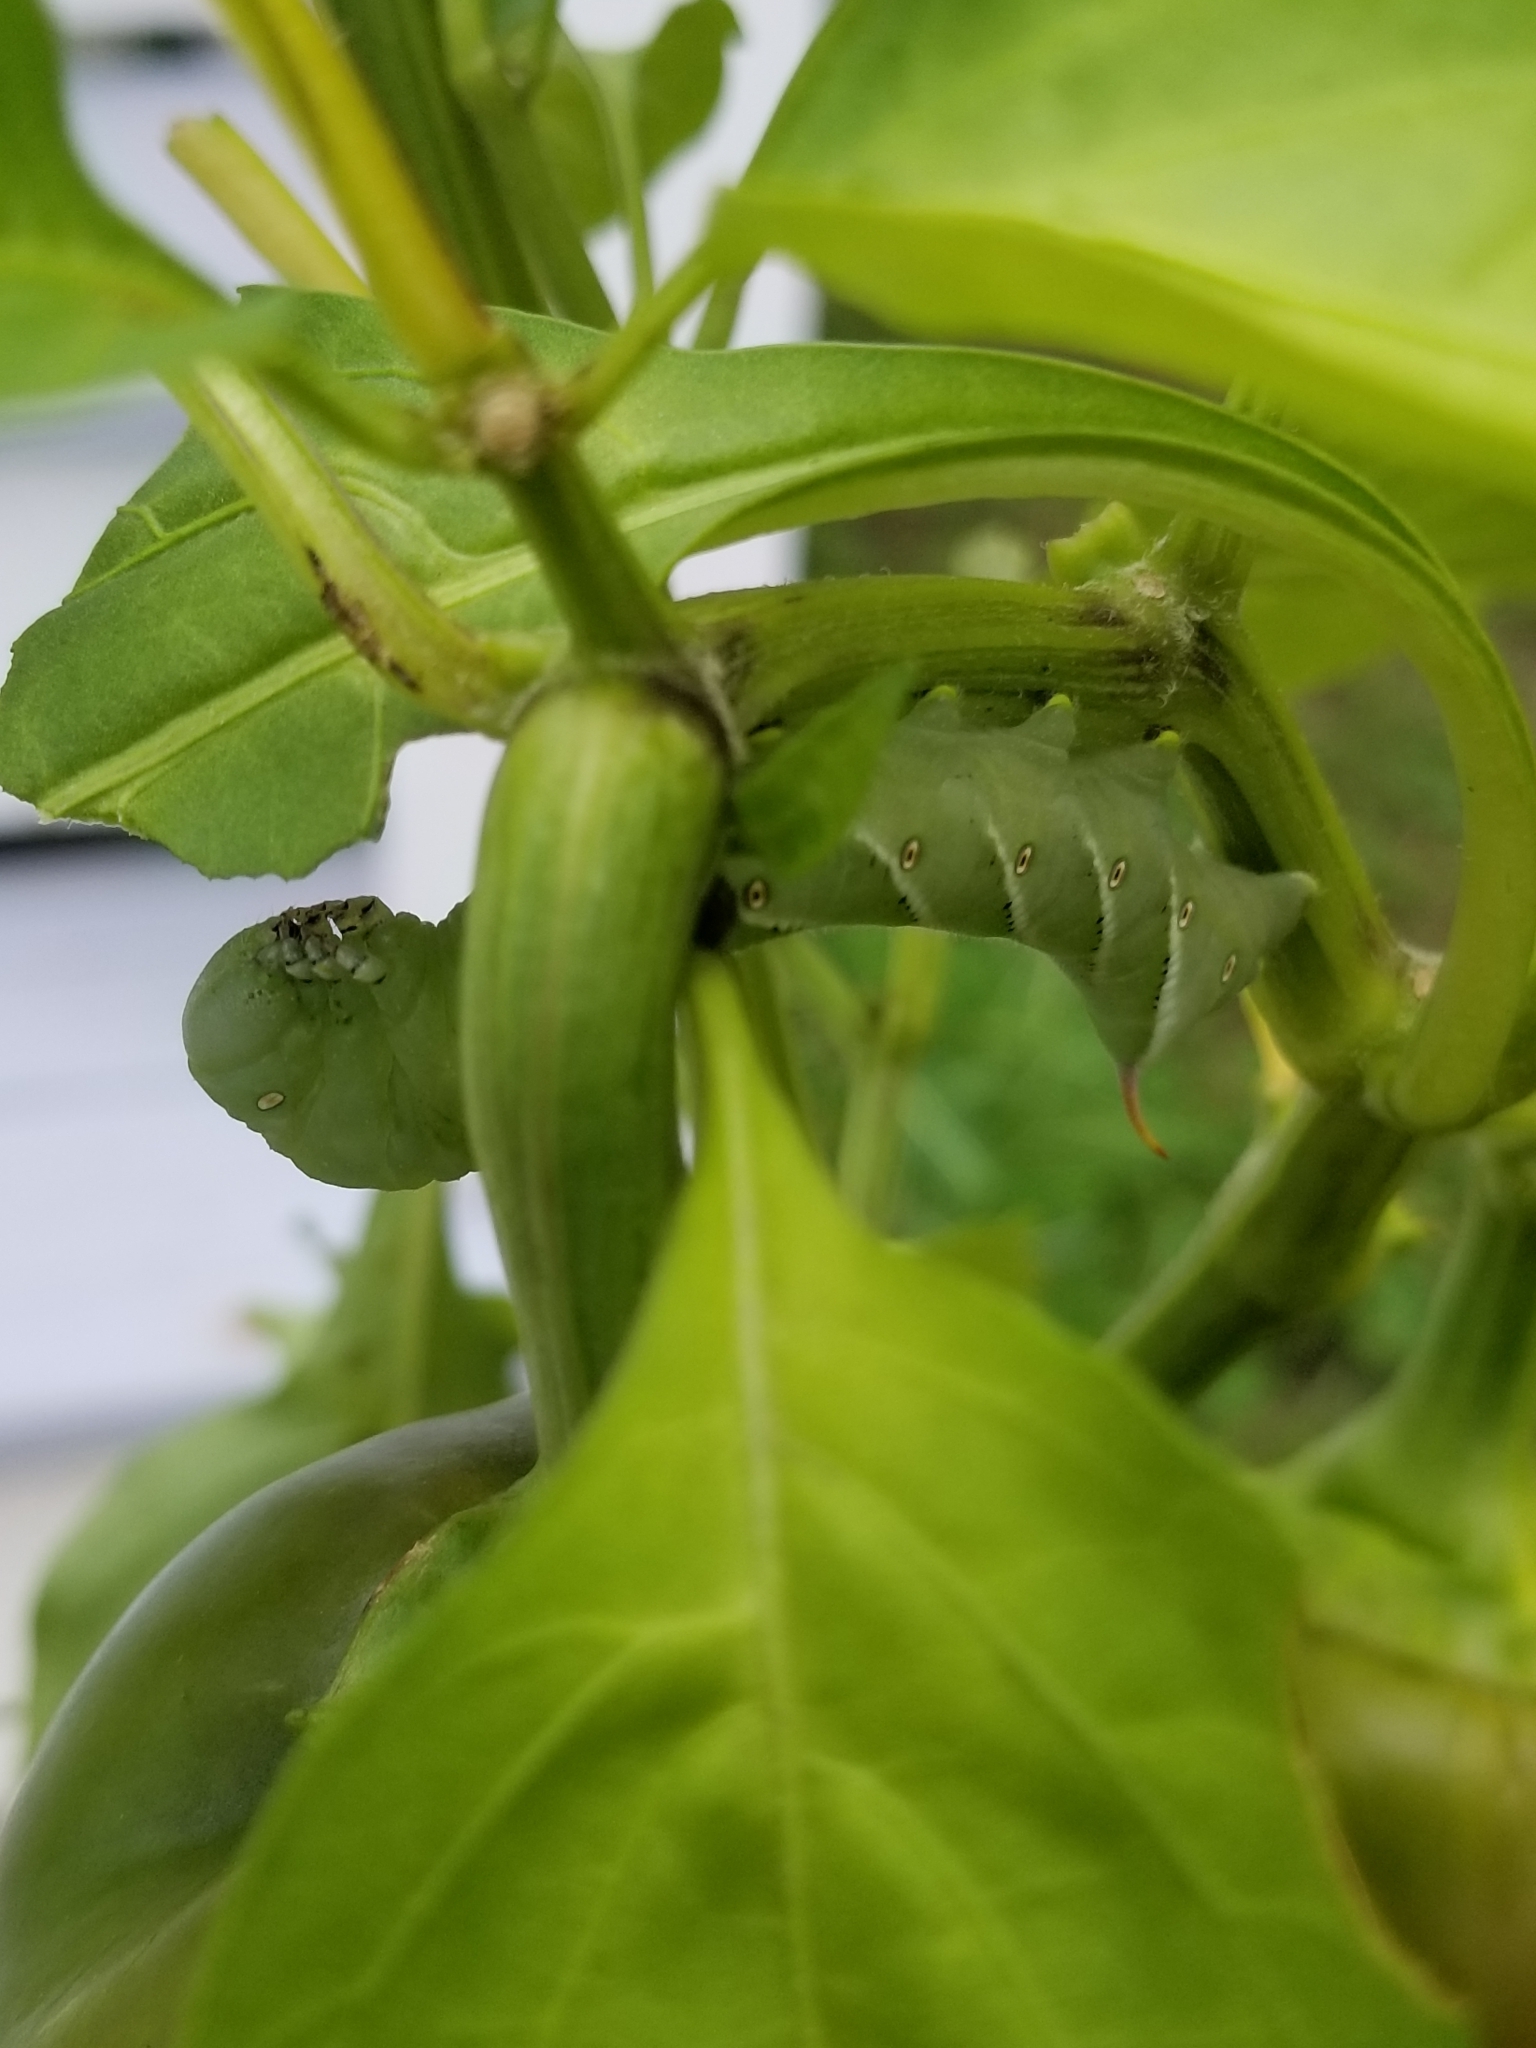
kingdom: Animalia
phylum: Arthropoda
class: Insecta
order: Lepidoptera
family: Sphingidae
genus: Manduca
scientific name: Manduca sexta
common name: Carolina sphinx
